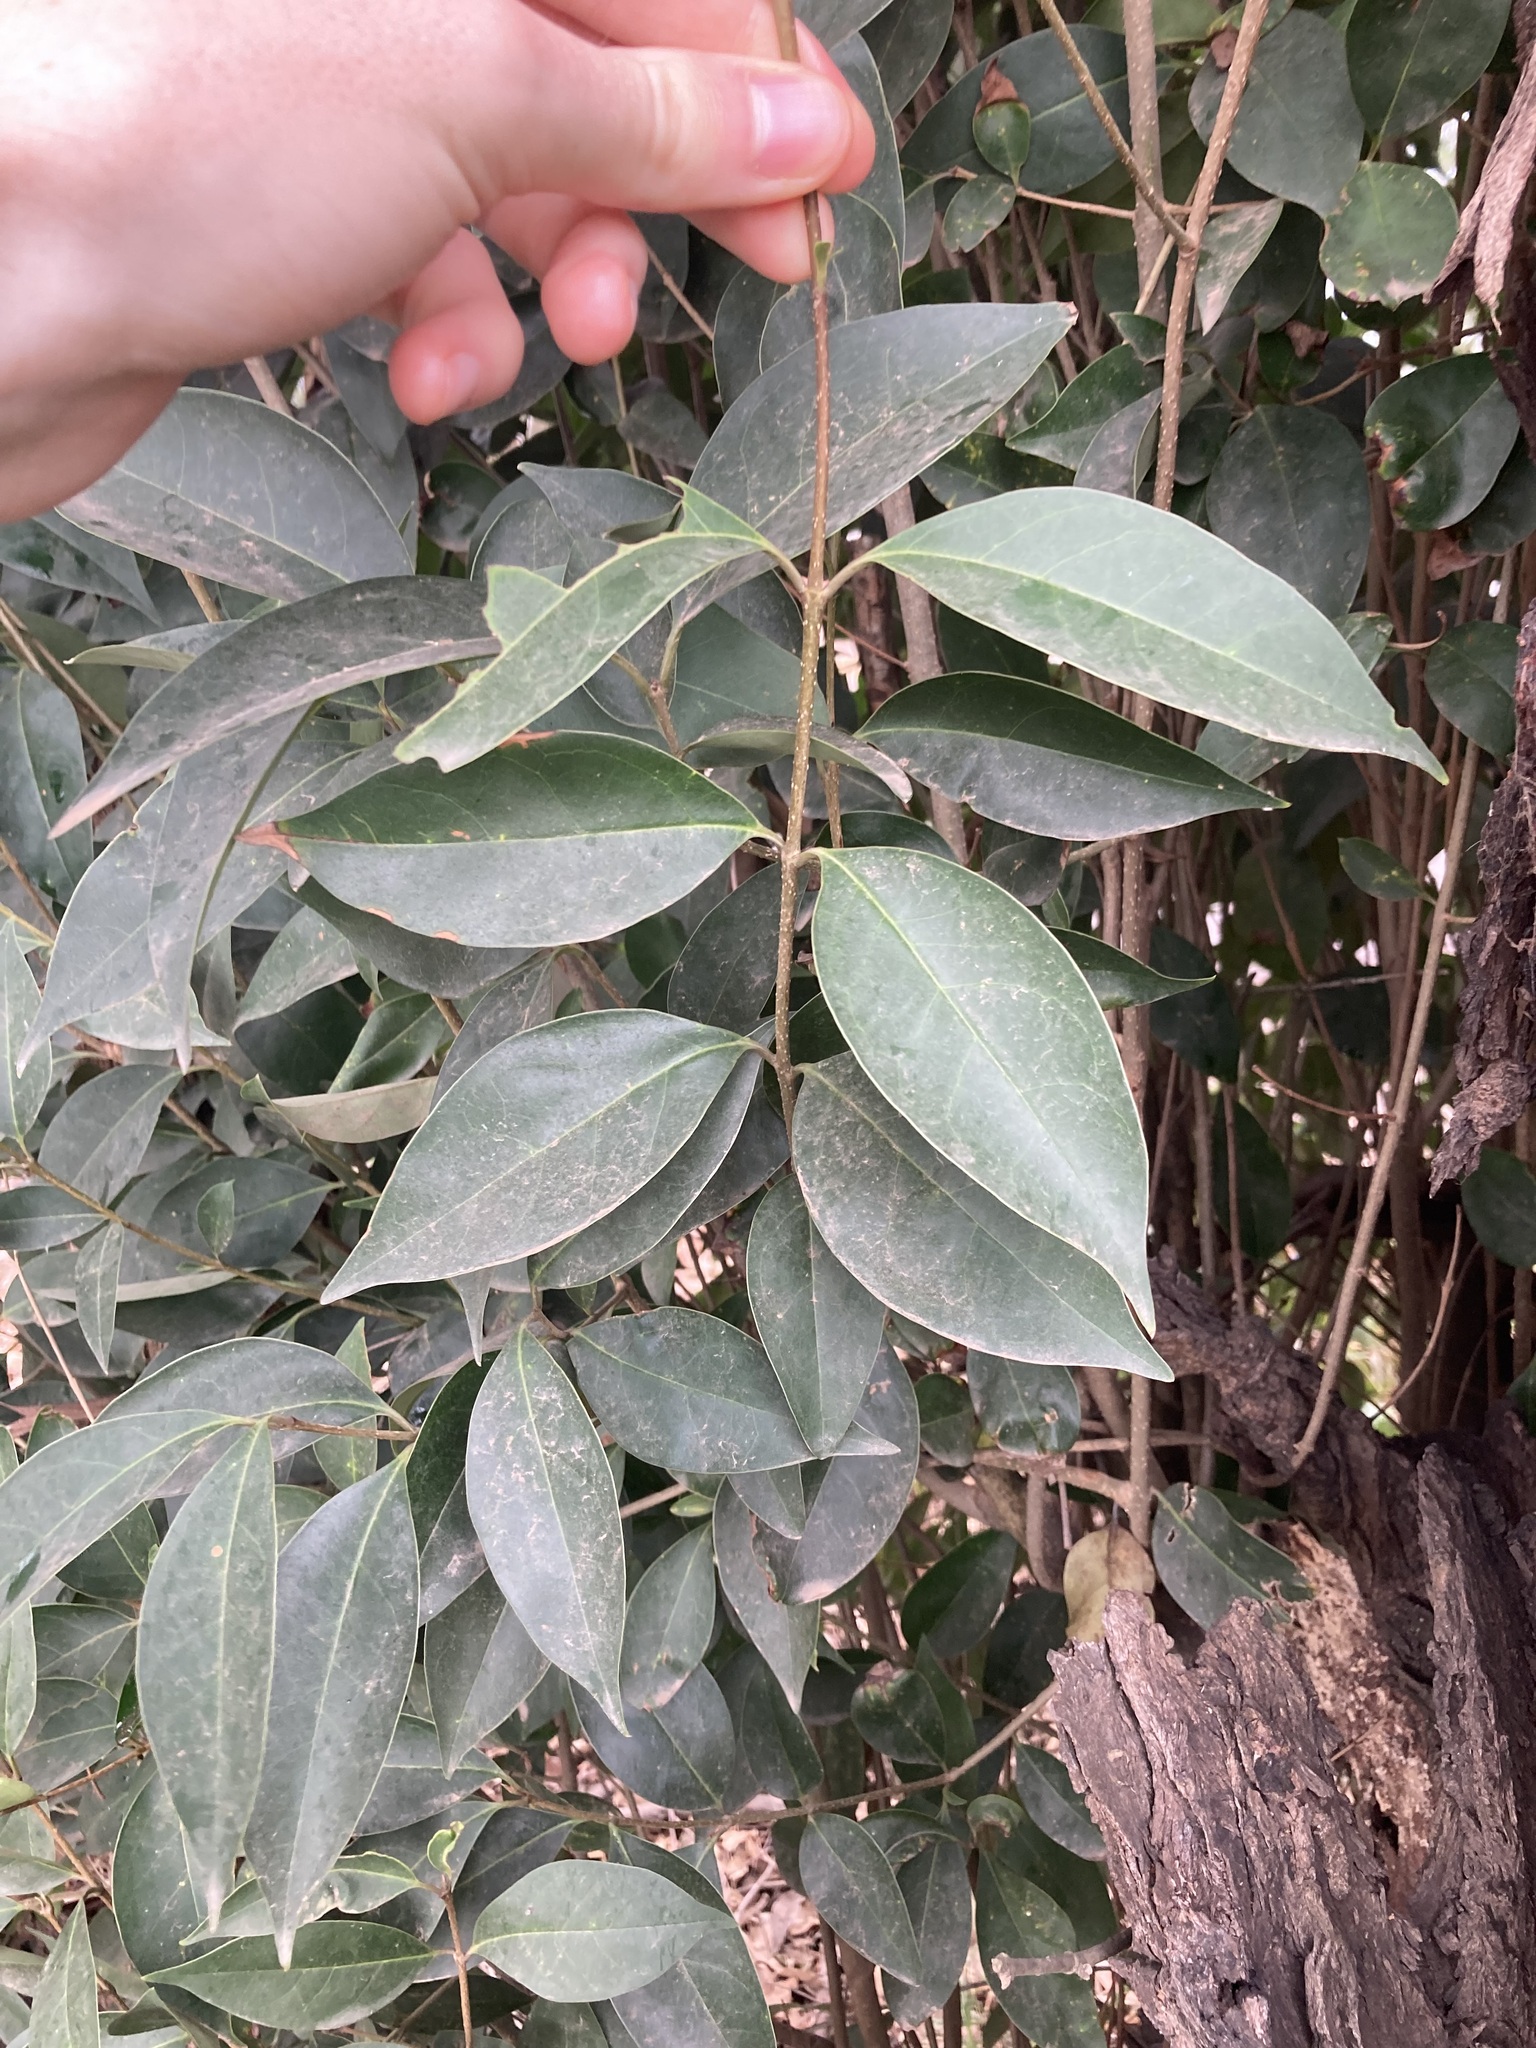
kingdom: Plantae
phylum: Tracheophyta
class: Magnoliopsida
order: Lamiales
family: Oleaceae
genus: Ligustrum
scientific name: Ligustrum lucidum
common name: Glossy privet
